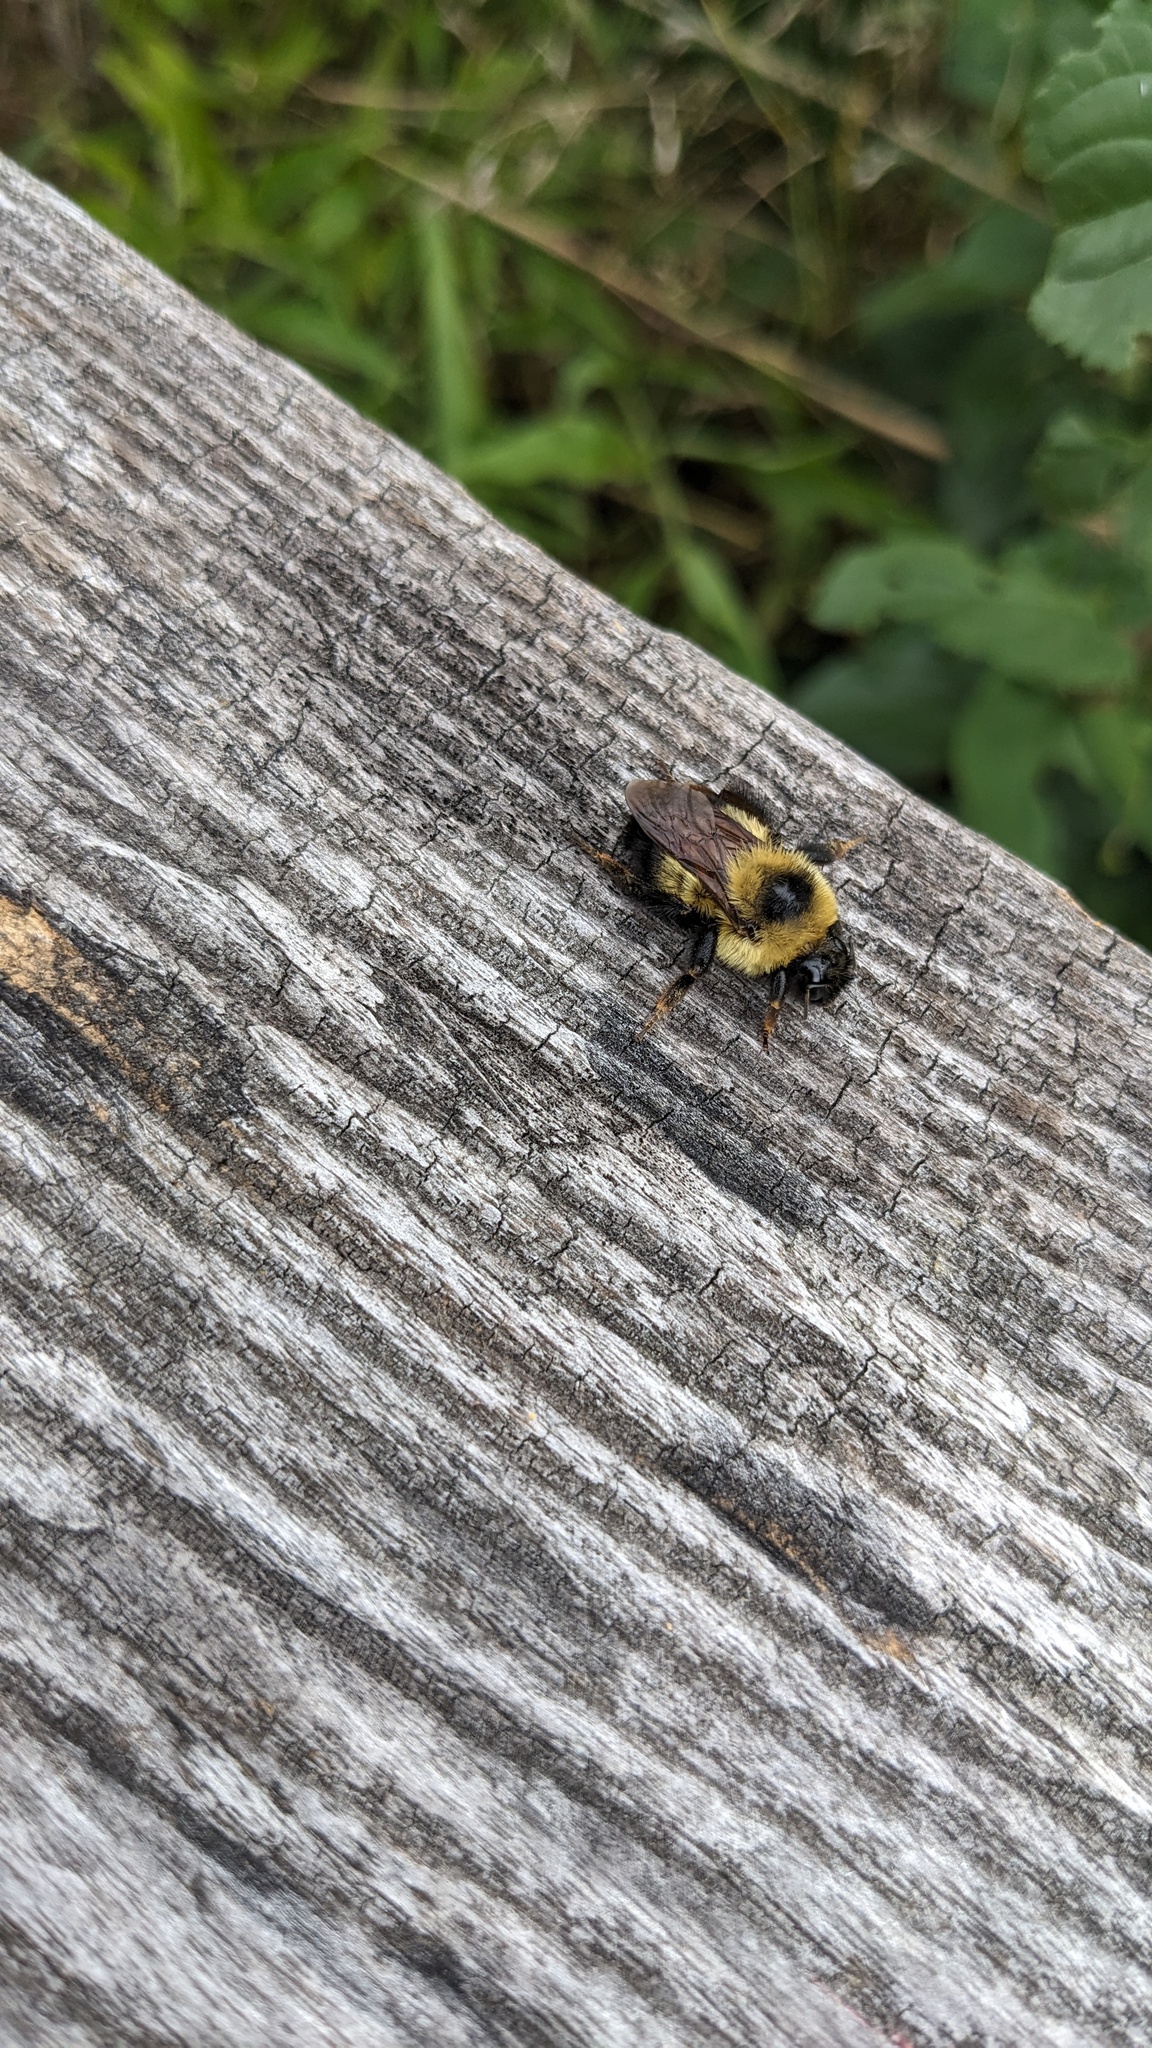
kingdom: Animalia
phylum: Arthropoda
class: Insecta
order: Hymenoptera
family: Apidae
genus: Bombus
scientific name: Bombus rufocinctus
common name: Red-belted bumble bee
